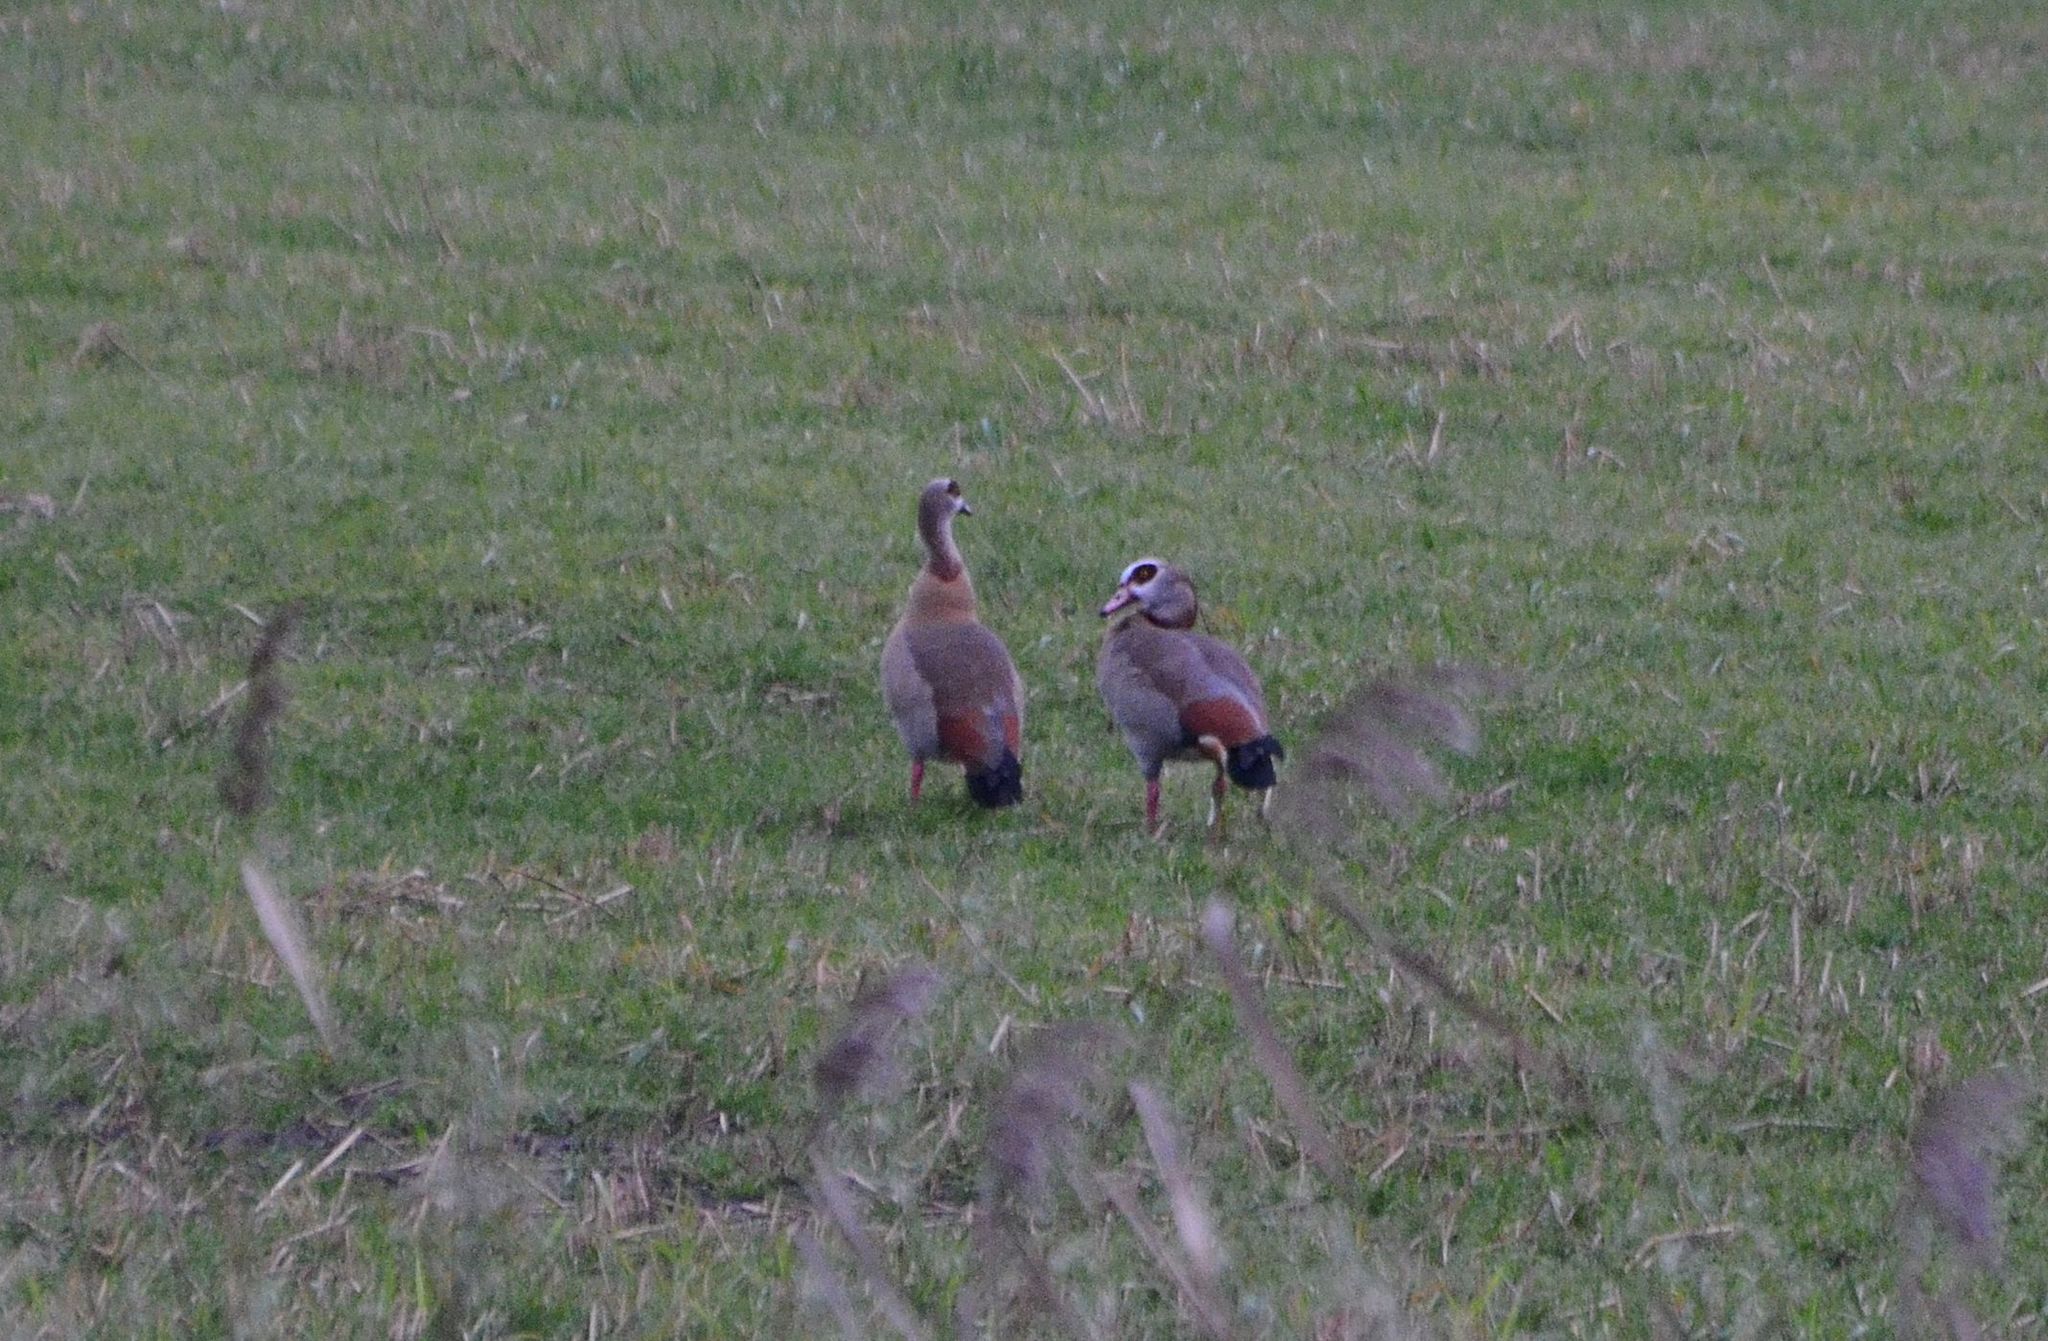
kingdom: Animalia
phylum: Chordata
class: Aves
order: Anseriformes
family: Anatidae
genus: Alopochen
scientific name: Alopochen aegyptiaca
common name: Egyptian goose
